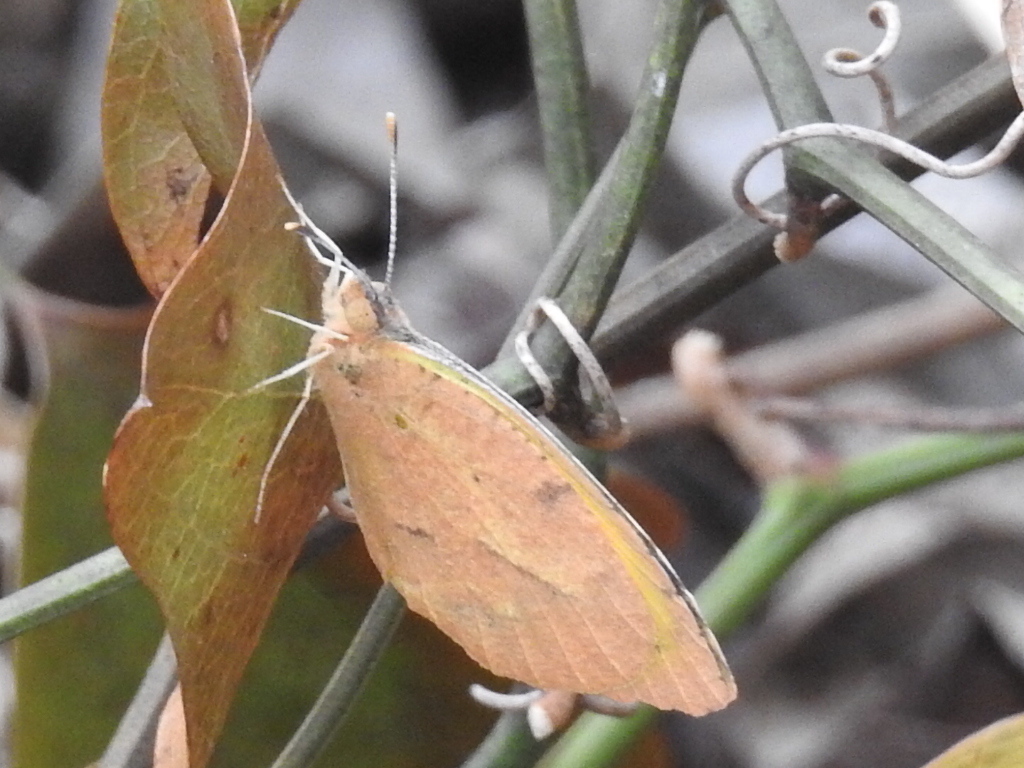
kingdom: Animalia
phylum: Arthropoda
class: Insecta
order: Lepidoptera
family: Pieridae
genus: Abaeis
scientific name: Abaeis nicippe
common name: Sleepy orange
